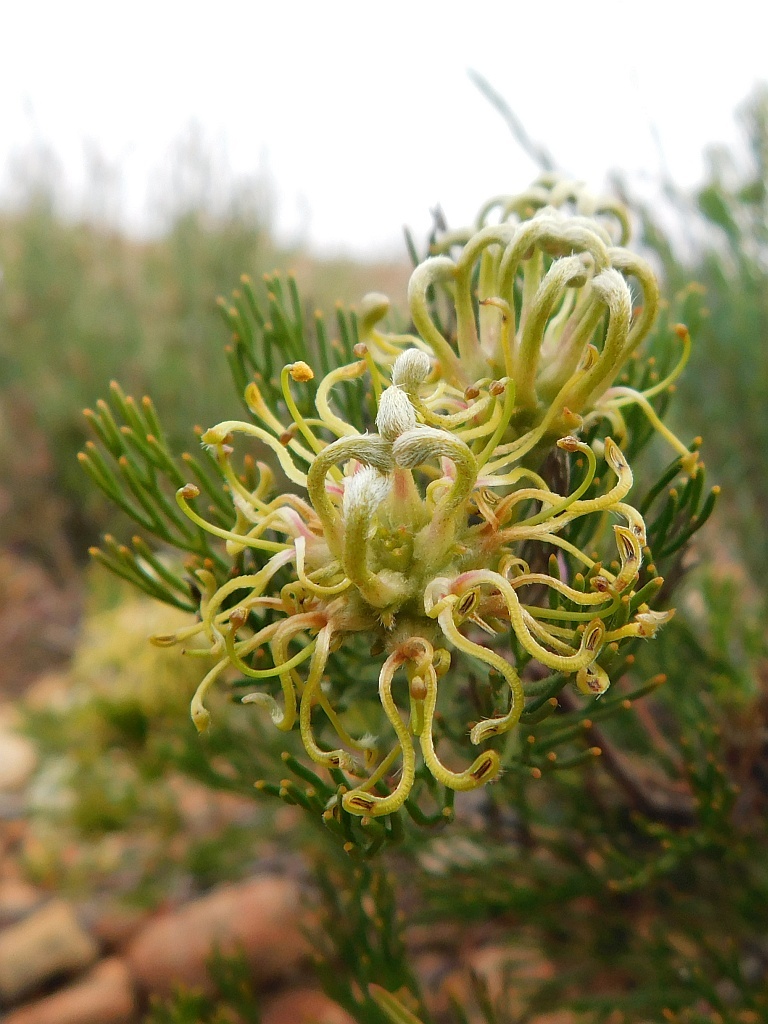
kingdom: Plantae
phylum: Tracheophyta
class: Magnoliopsida
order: Proteales
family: Proteaceae
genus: Serruria
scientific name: Serruria
